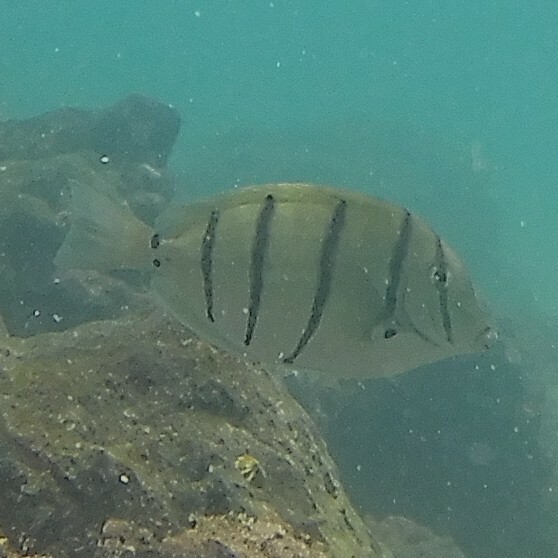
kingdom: Animalia
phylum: Chordata
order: Perciformes
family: Acanthuridae
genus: Acanthurus
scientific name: Acanthurus triostegus
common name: Convict surgeonfish
